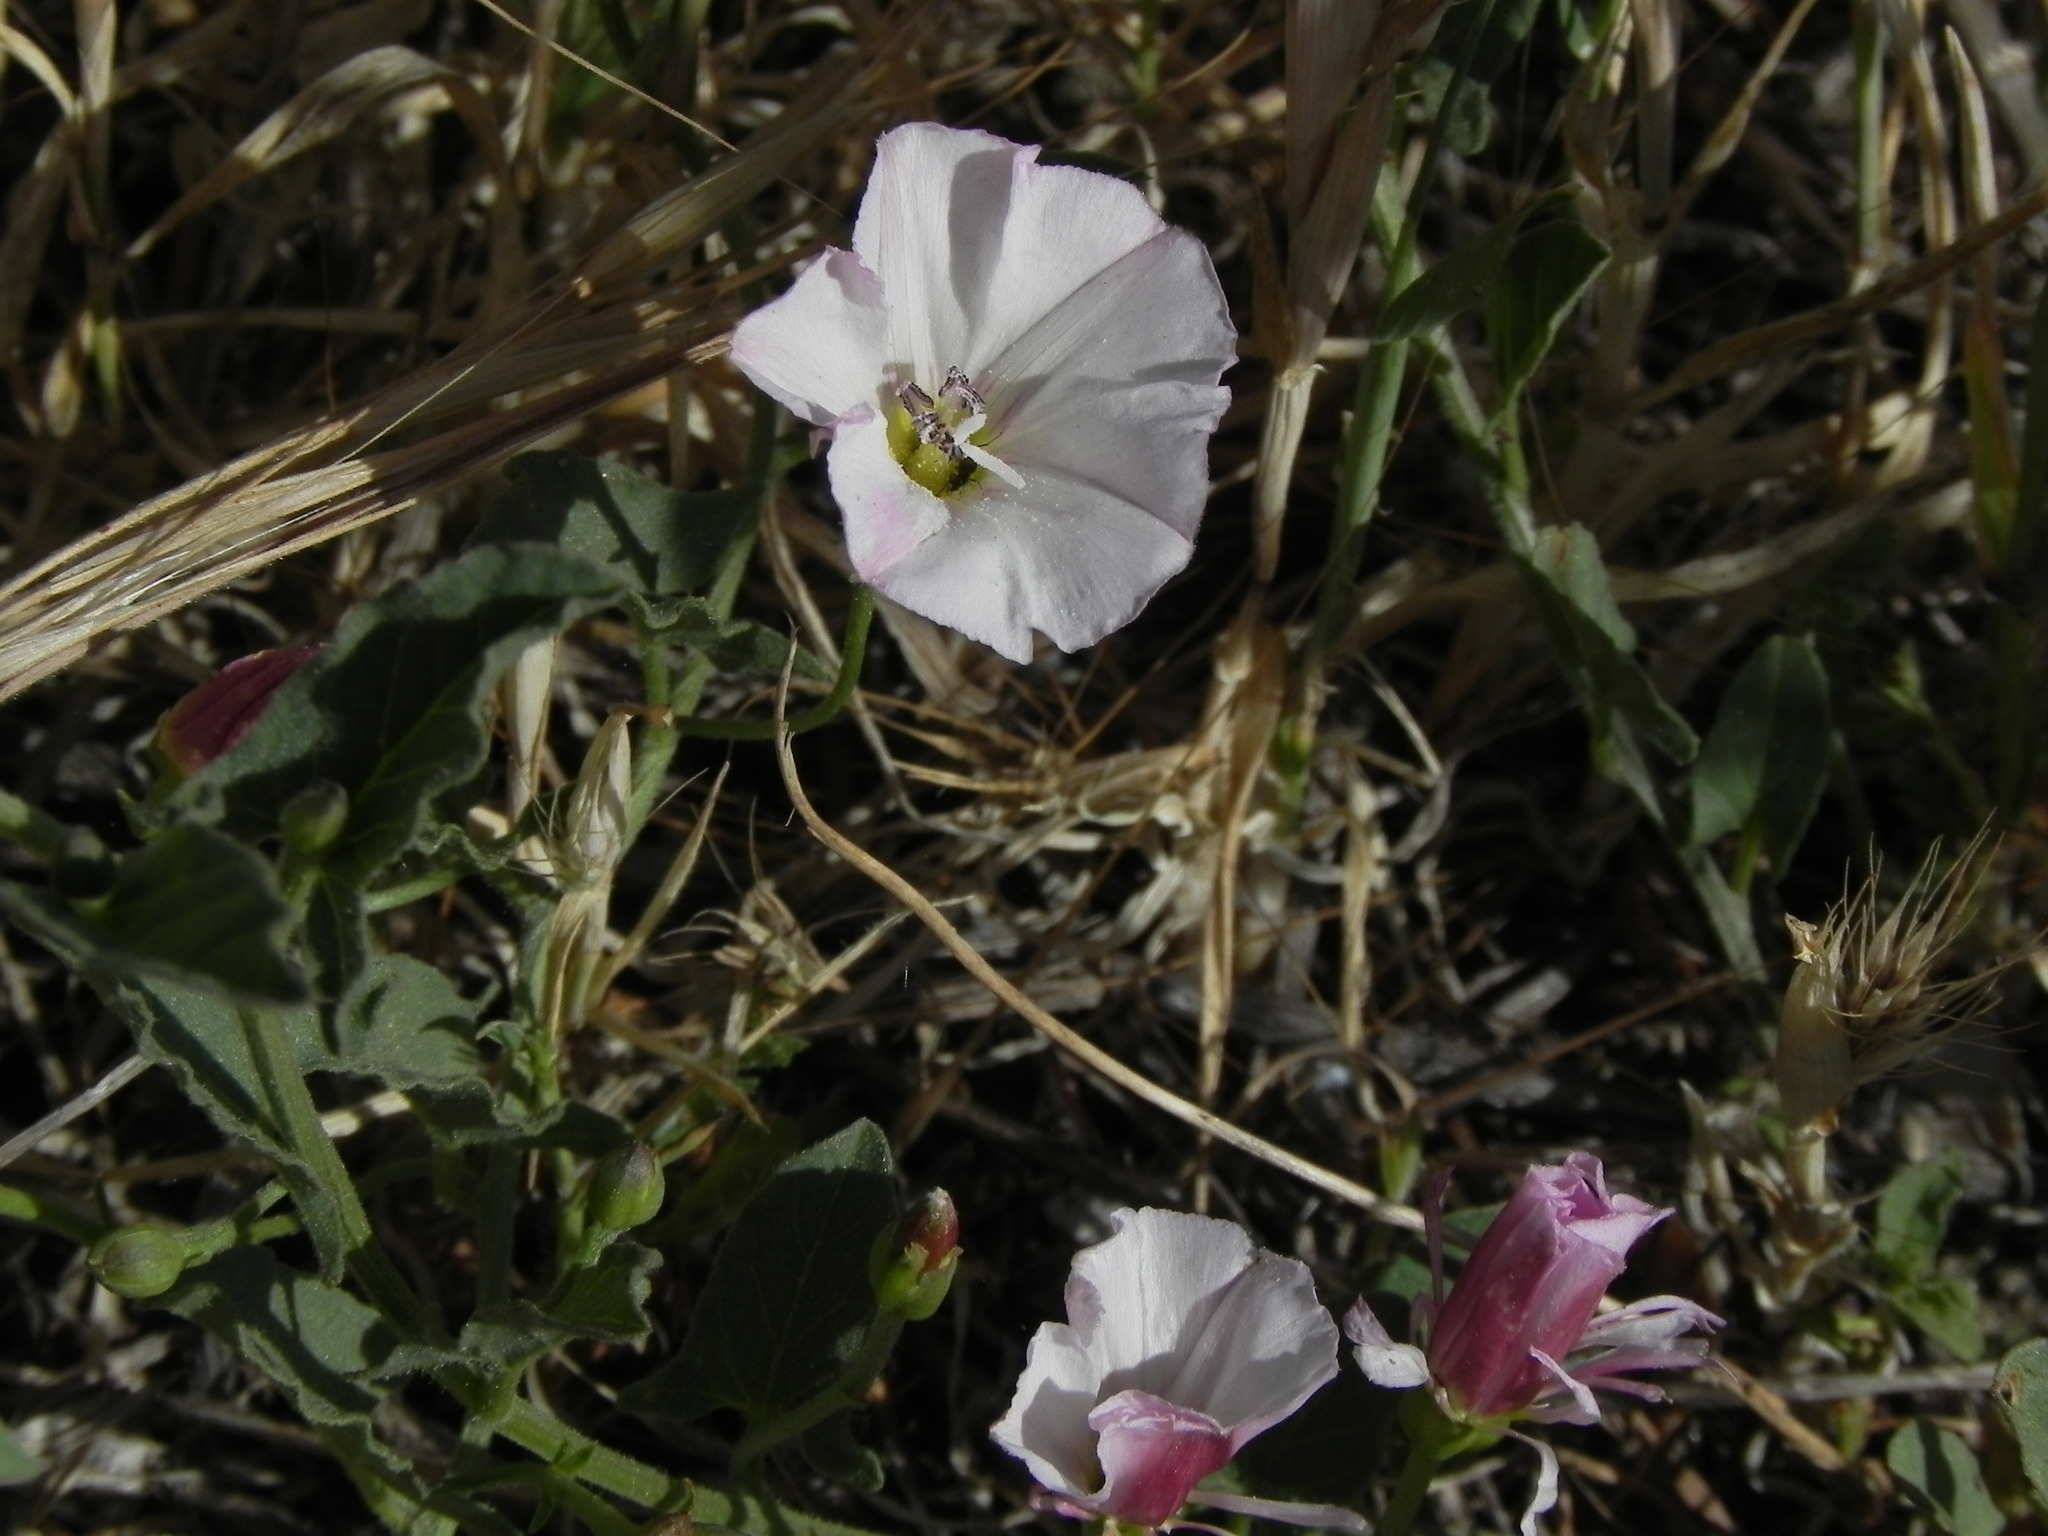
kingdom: Plantae
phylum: Tracheophyta
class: Magnoliopsida
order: Solanales
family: Convolvulaceae
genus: Convolvulus
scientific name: Convolvulus arvensis
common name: Field bindweed
